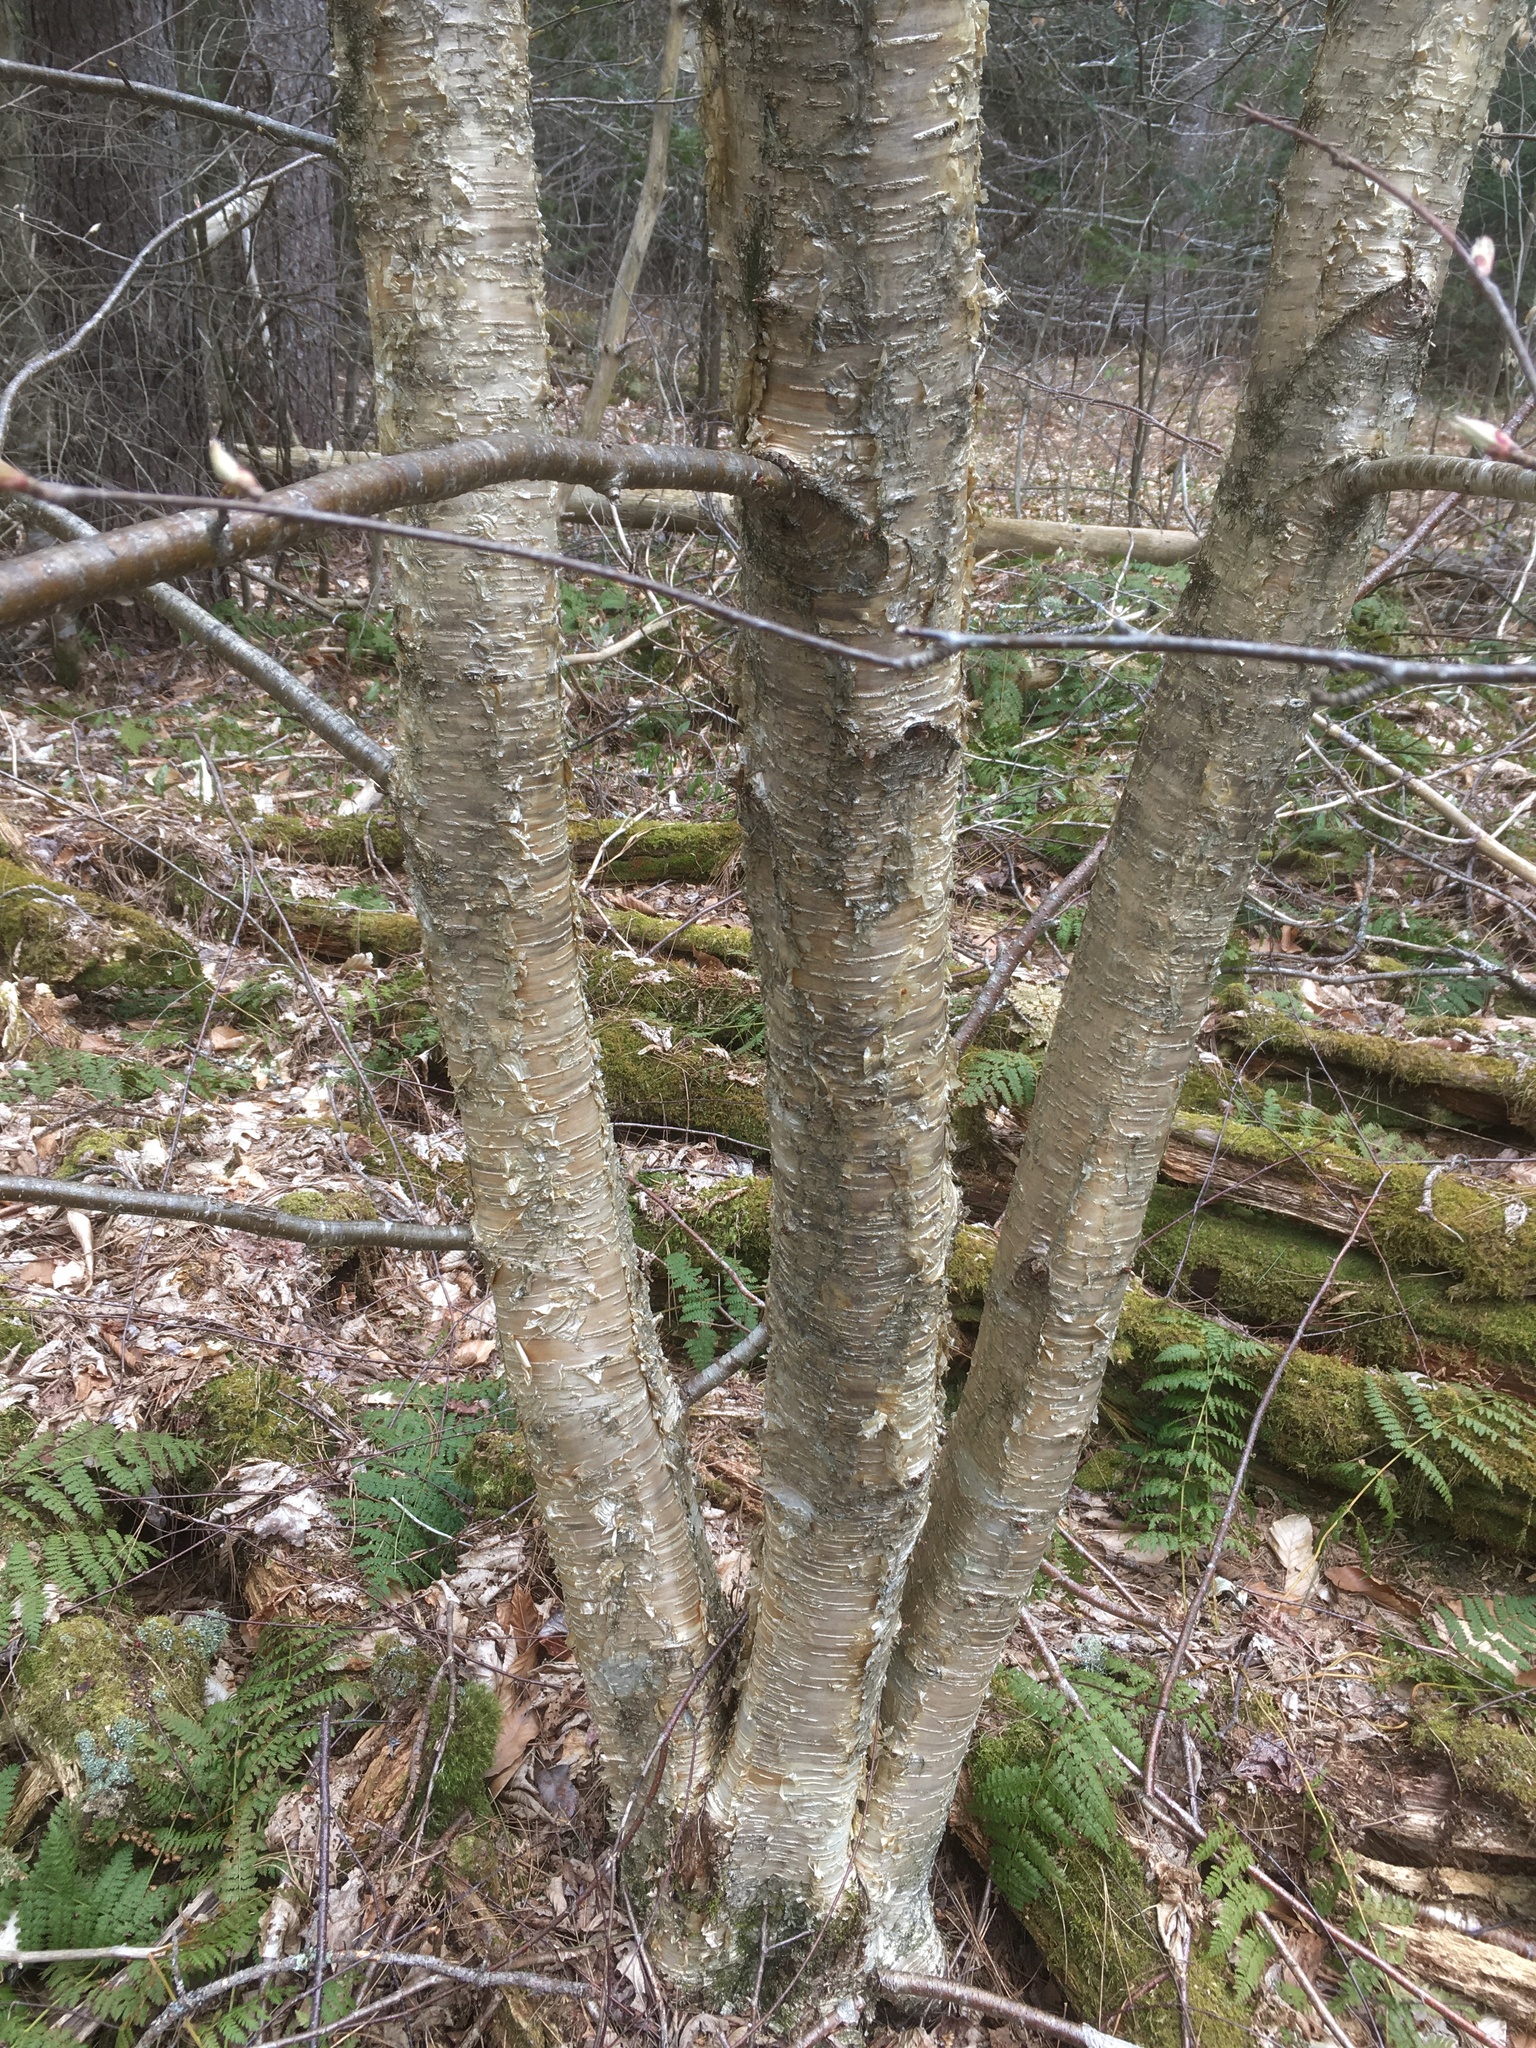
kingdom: Plantae
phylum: Tracheophyta
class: Magnoliopsida
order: Fagales
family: Betulaceae
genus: Betula
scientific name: Betula alleghaniensis
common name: Yellow birch
